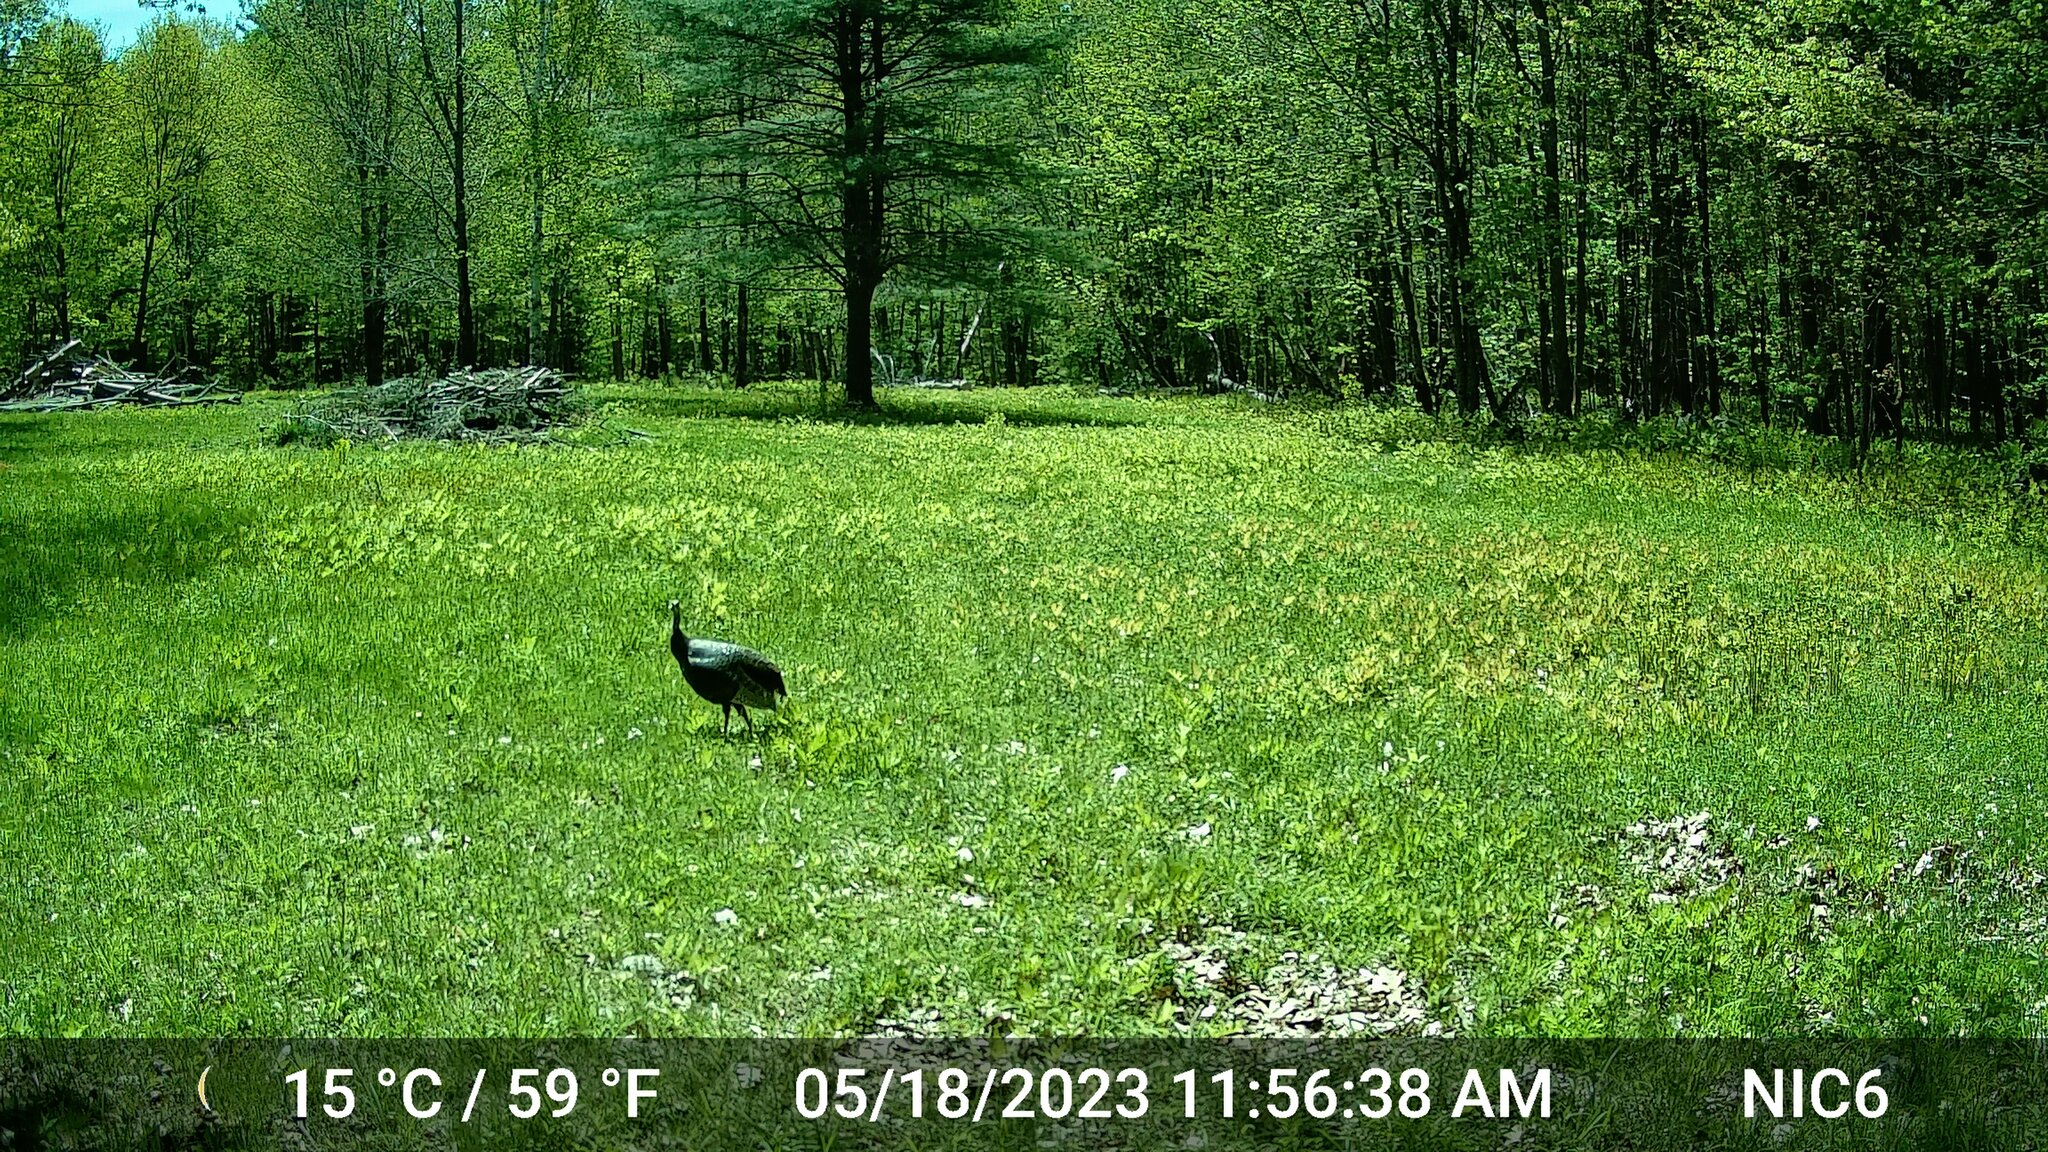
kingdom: Animalia
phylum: Chordata
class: Aves
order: Galliformes
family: Phasianidae
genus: Meleagris
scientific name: Meleagris gallopavo
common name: Wild turkey
